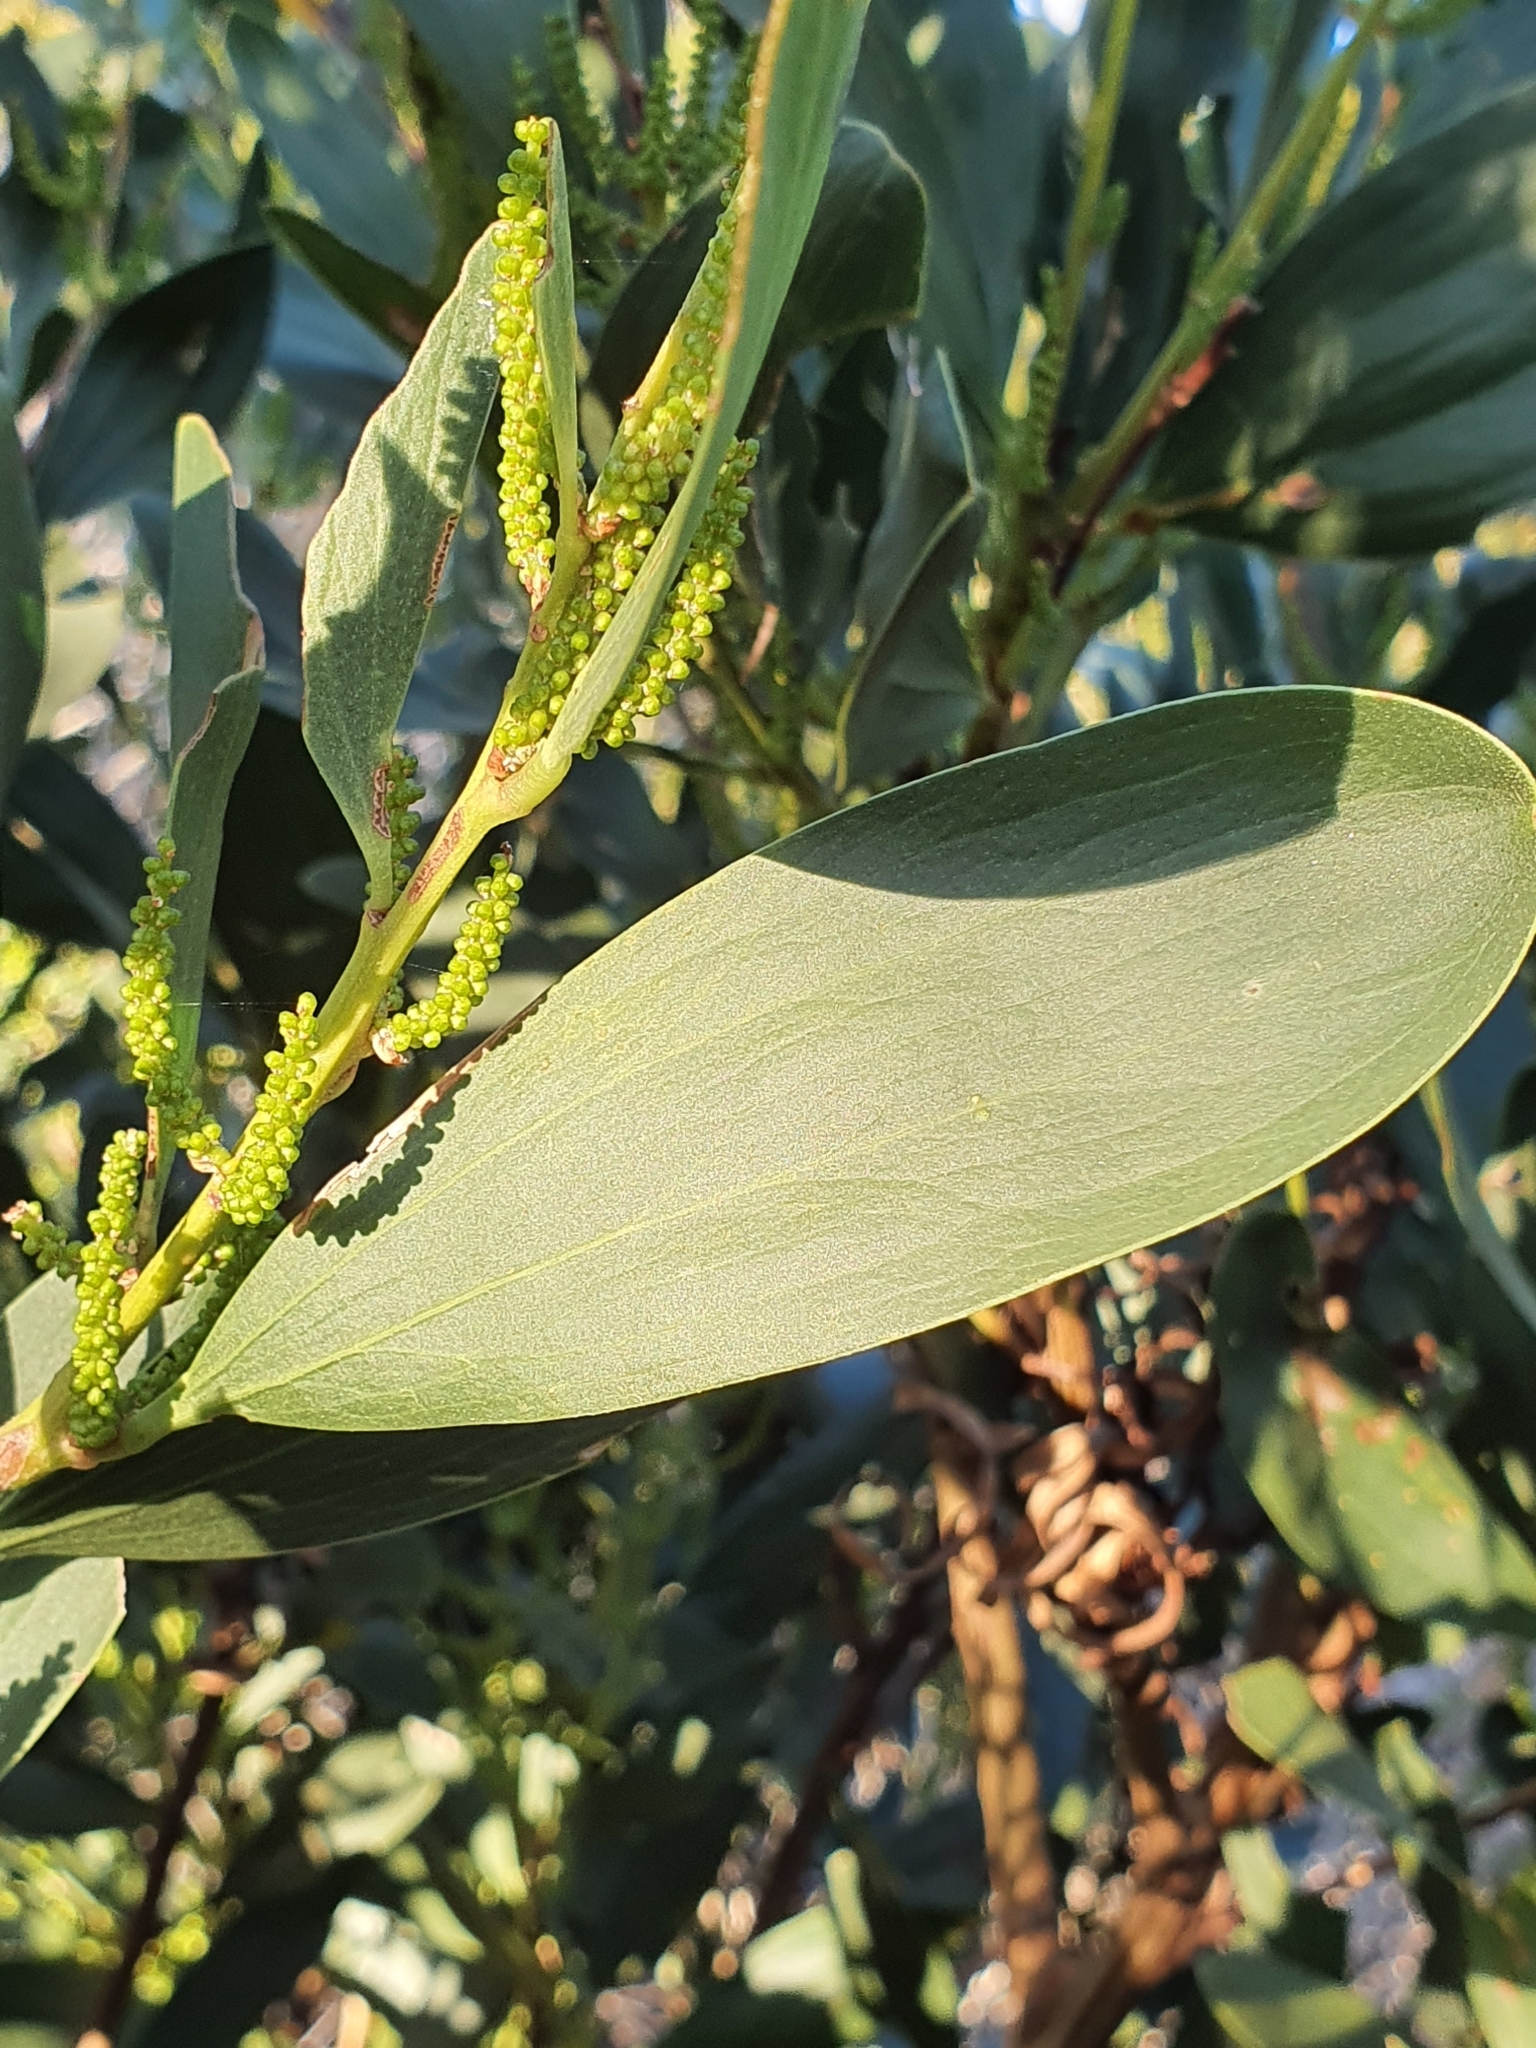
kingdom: Plantae
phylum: Tracheophyta
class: Magnoliopsida
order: Fabales
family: Fabaceae
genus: Acacia
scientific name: Acacia longifolia
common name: Sydney golden wattle
